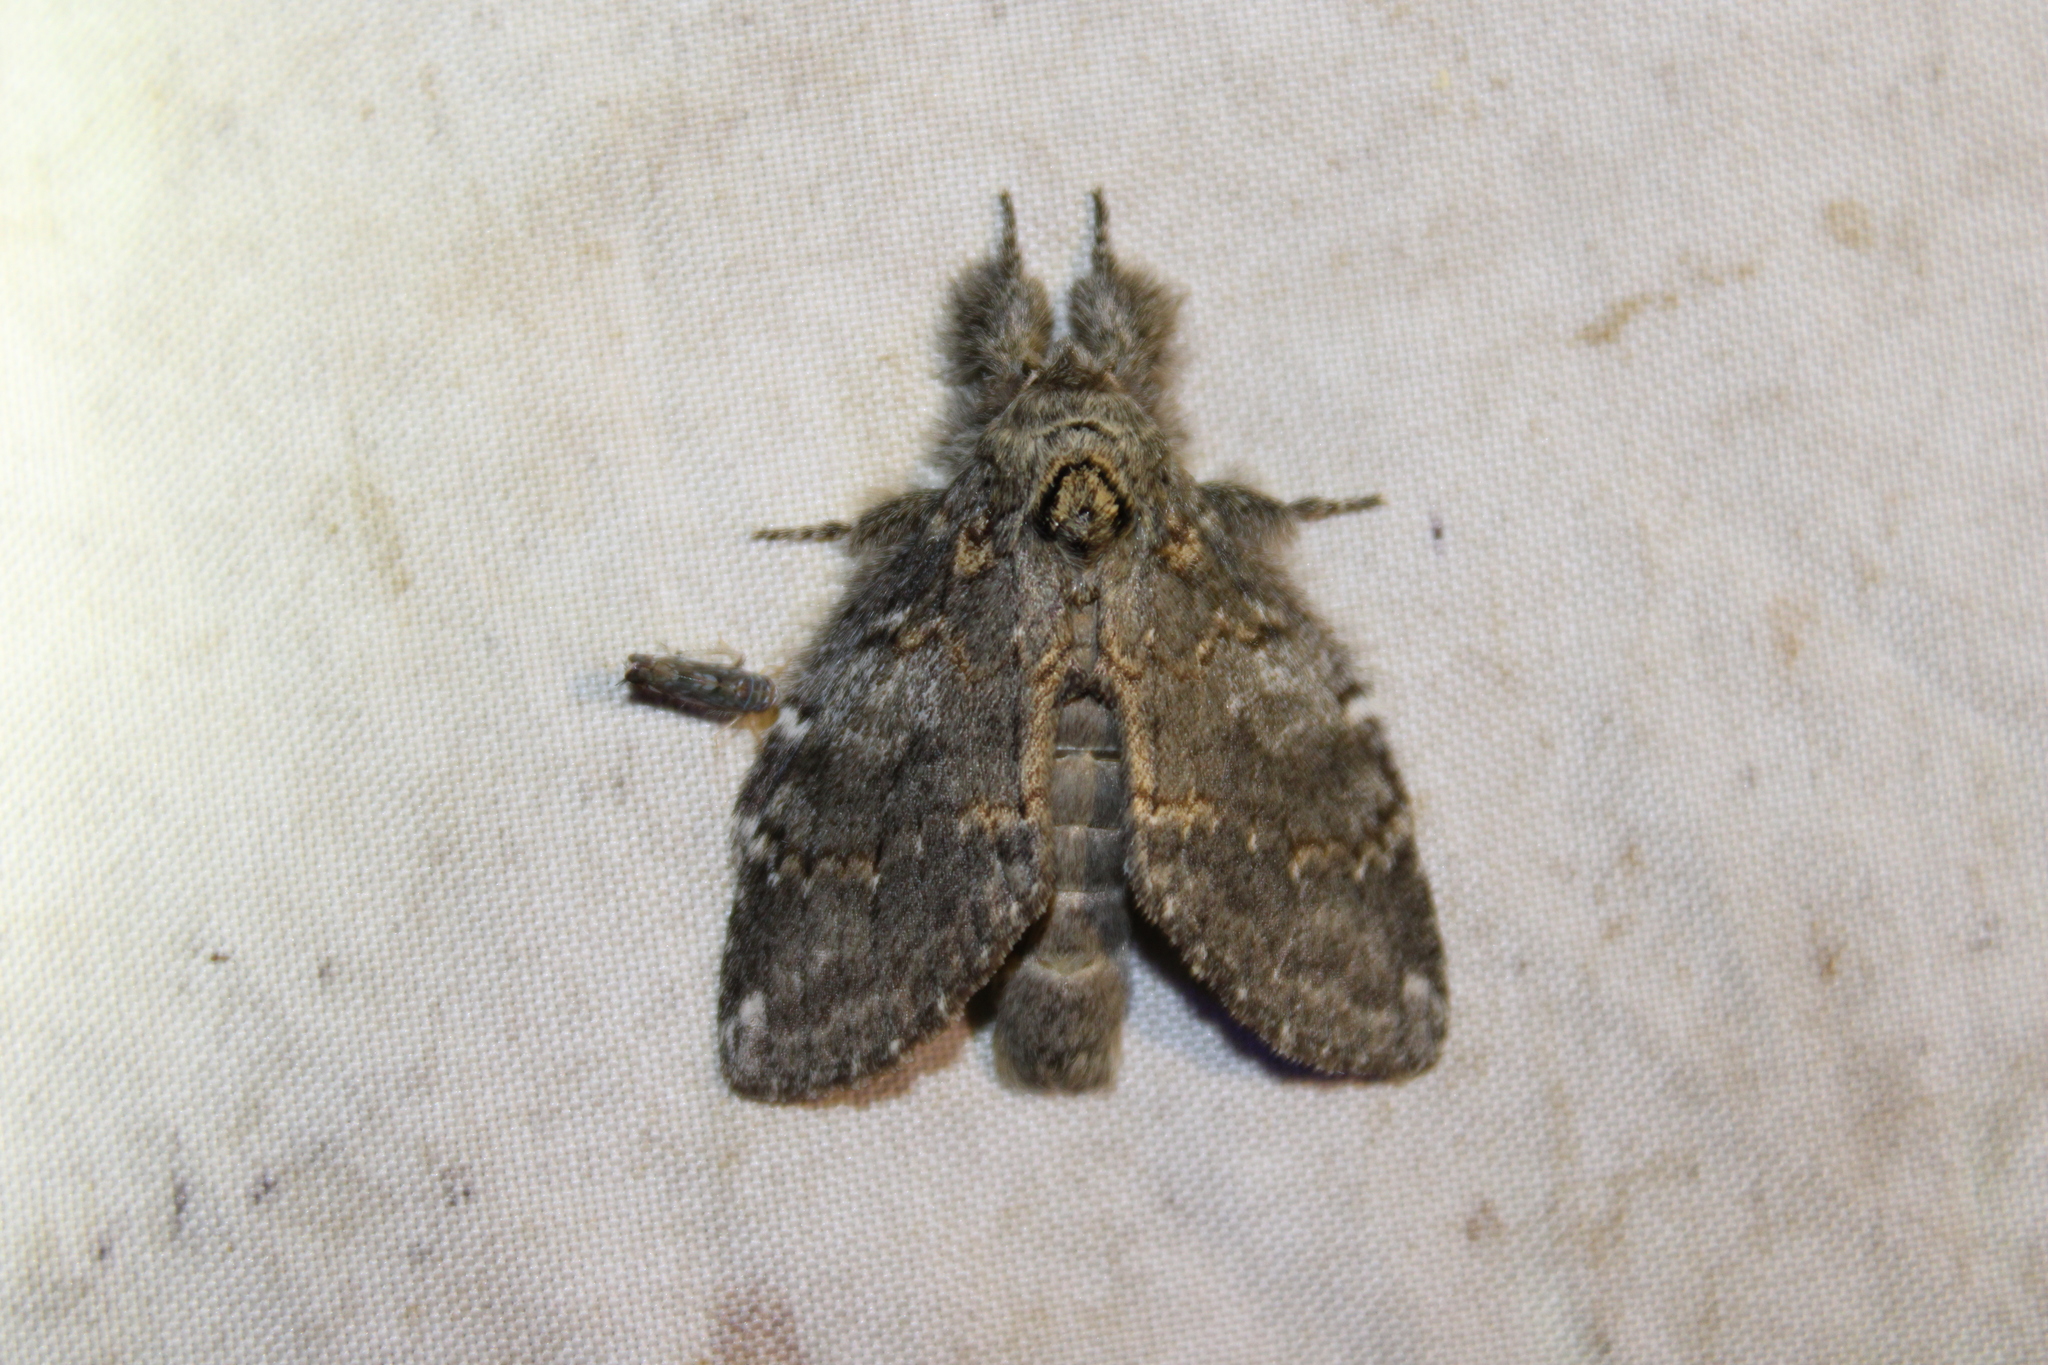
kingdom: Animalia
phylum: Arthropoda
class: Insecta
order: Lepidoptera
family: Notodontidae
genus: Peridea
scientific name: Peridea angulosa
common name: Angulose prominent
